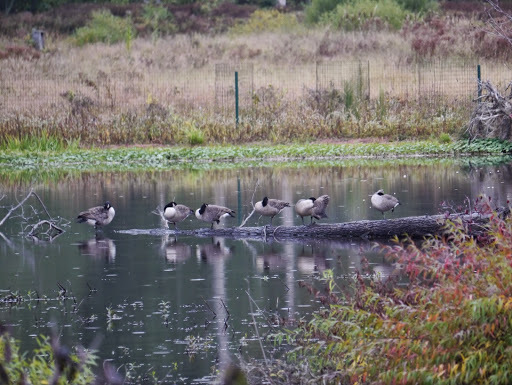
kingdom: Animalia
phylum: Chordata
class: Aves
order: Anseriformes
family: Anatidae
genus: Branta
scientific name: Branta canadensis
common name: Canada goose
